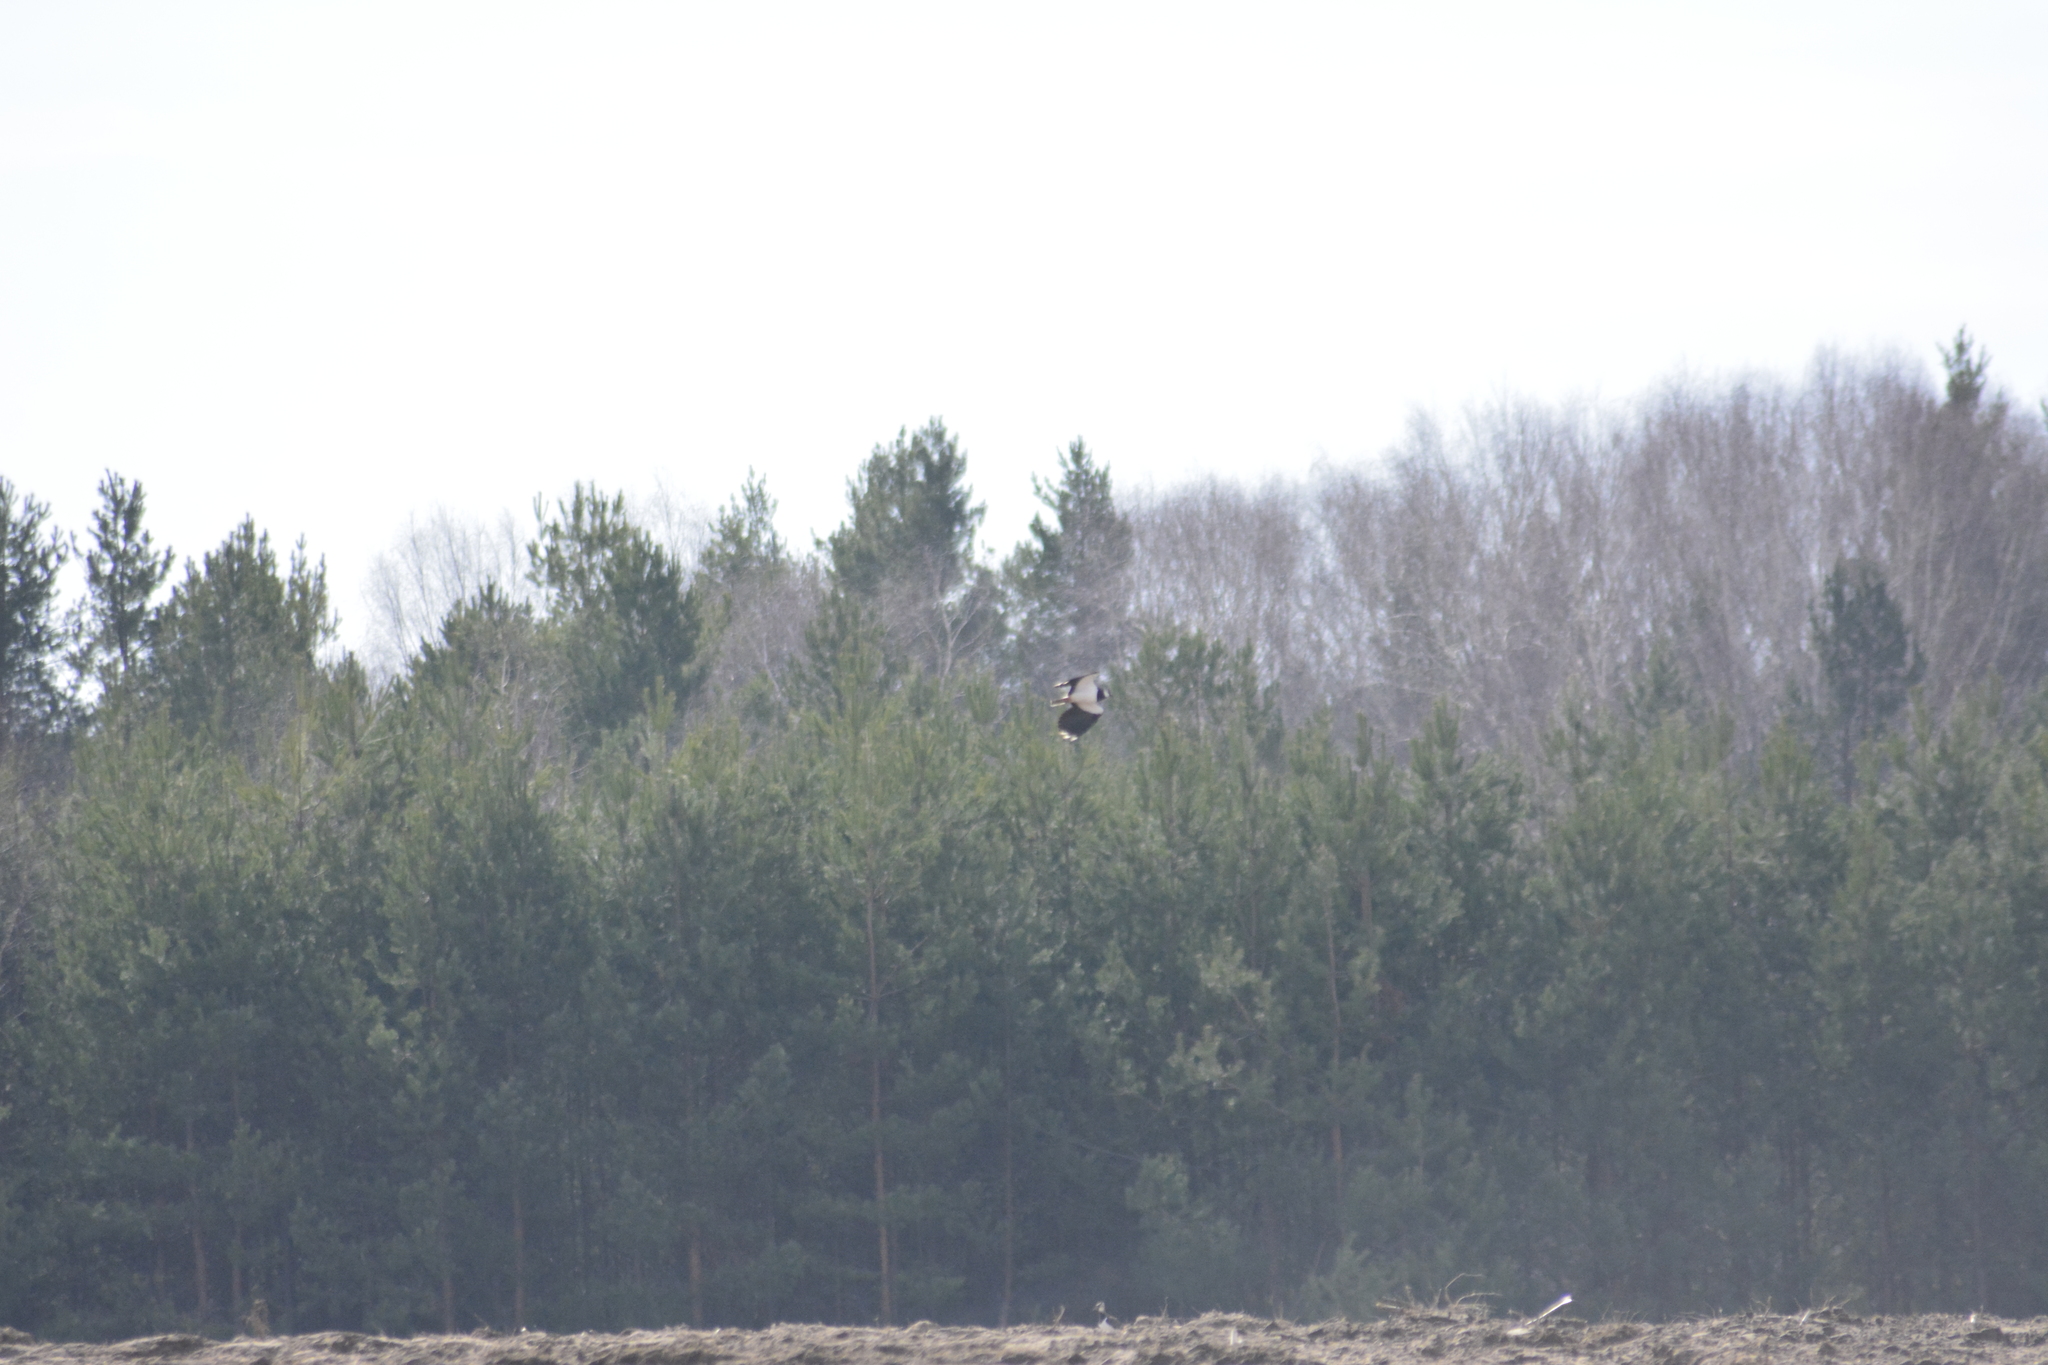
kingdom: Animalia
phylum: Chordata
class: Aves
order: Charadriiformes
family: Charadriidae
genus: Vanellus
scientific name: Vanellus vanellus
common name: Northern lapwing
